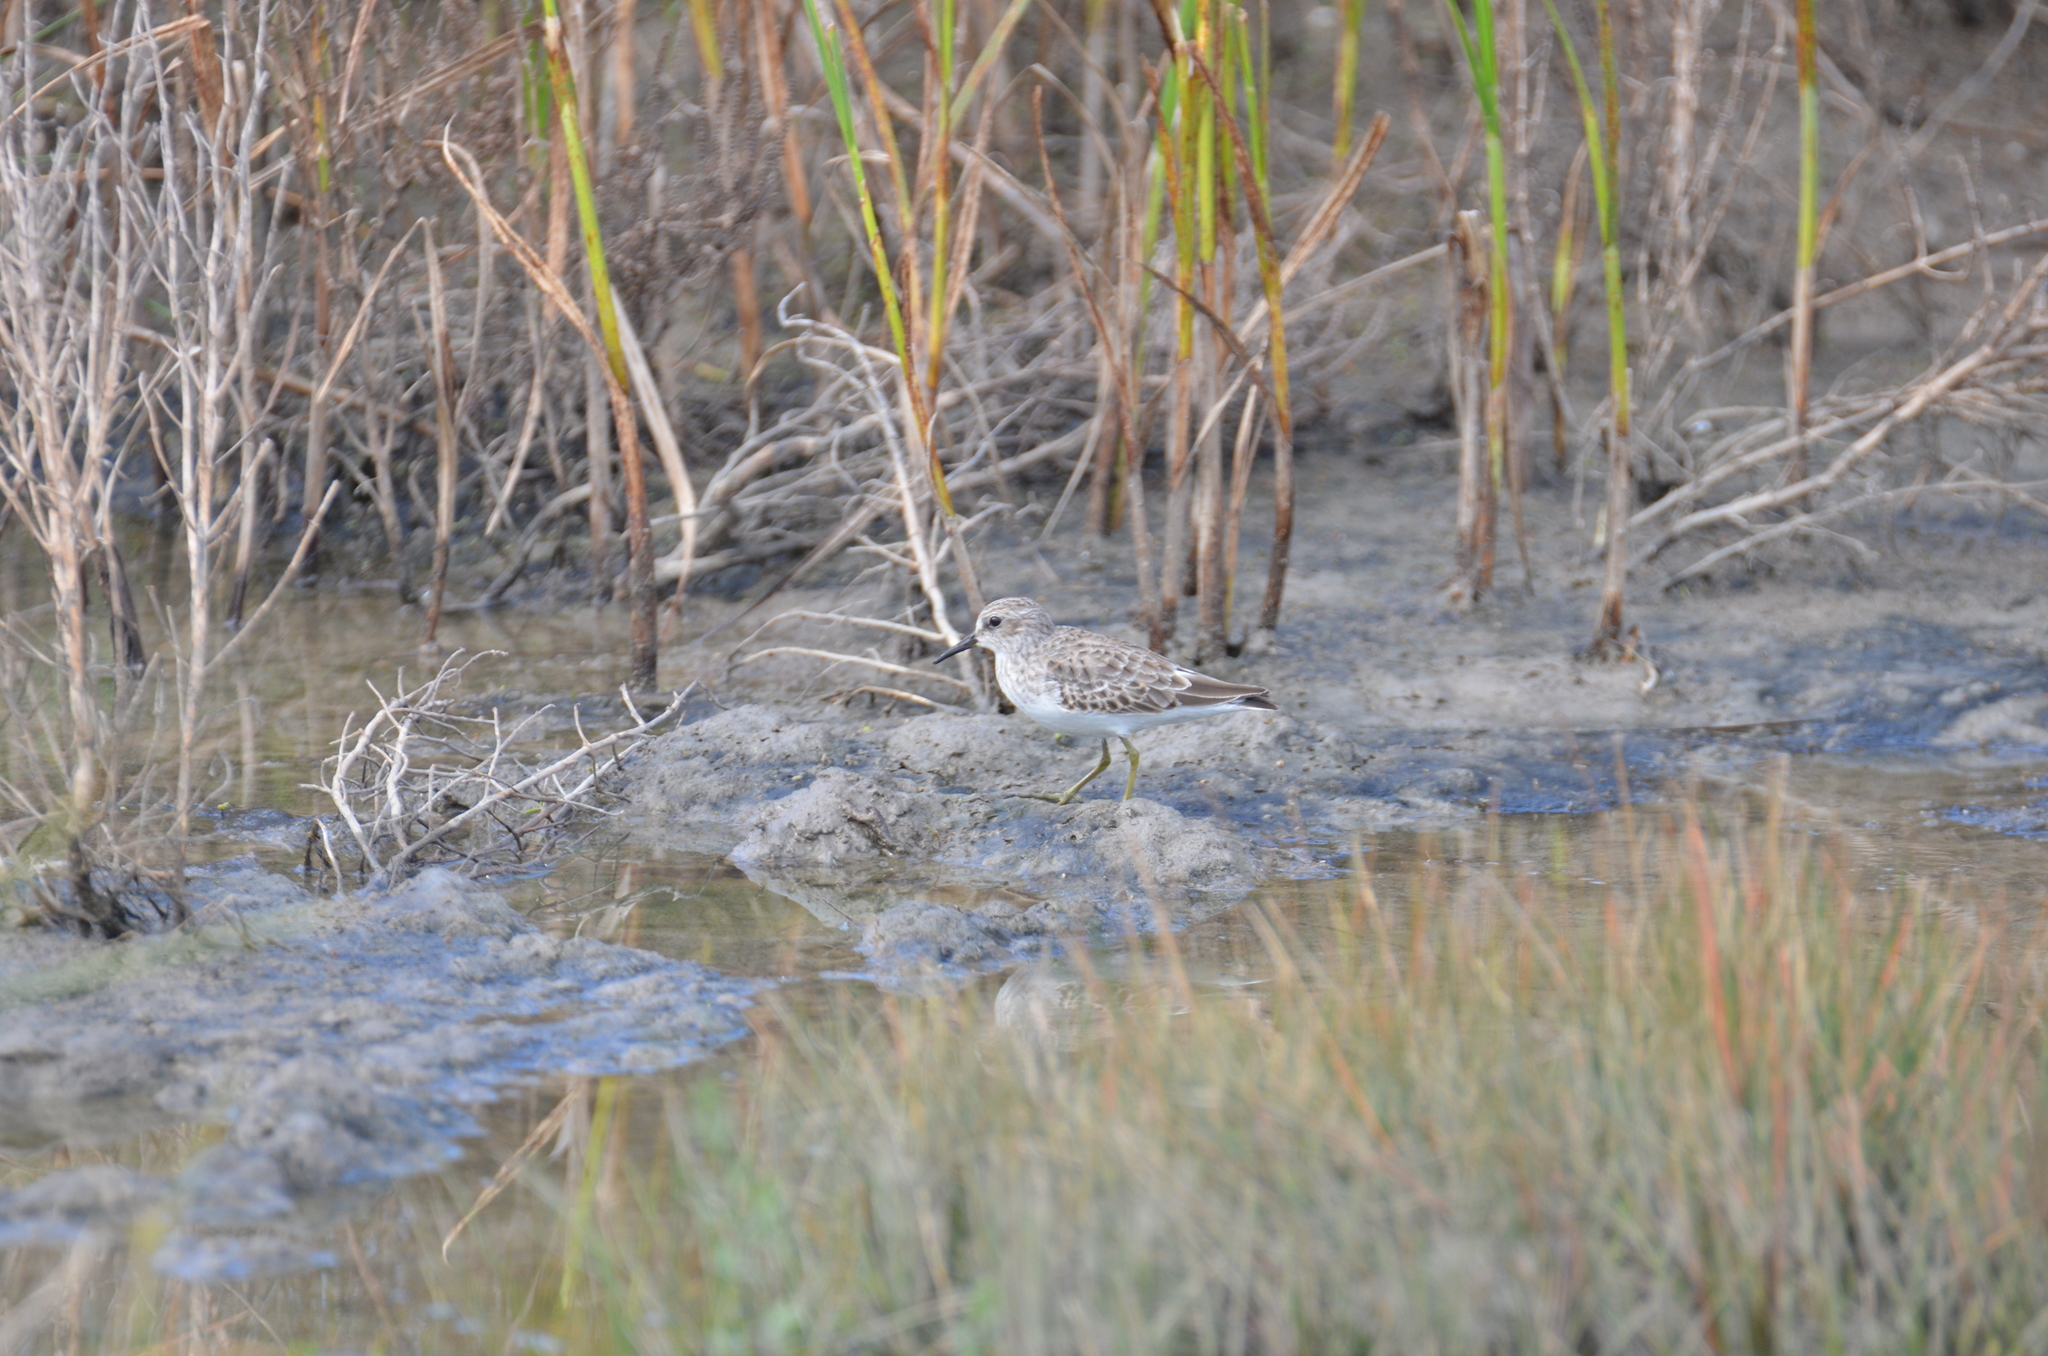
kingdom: Animalia
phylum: Chordata
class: Aves
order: Charadriiformes
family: Scolopacidae
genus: Calidris
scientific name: Calidris minutilla
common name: Least sandpiper
